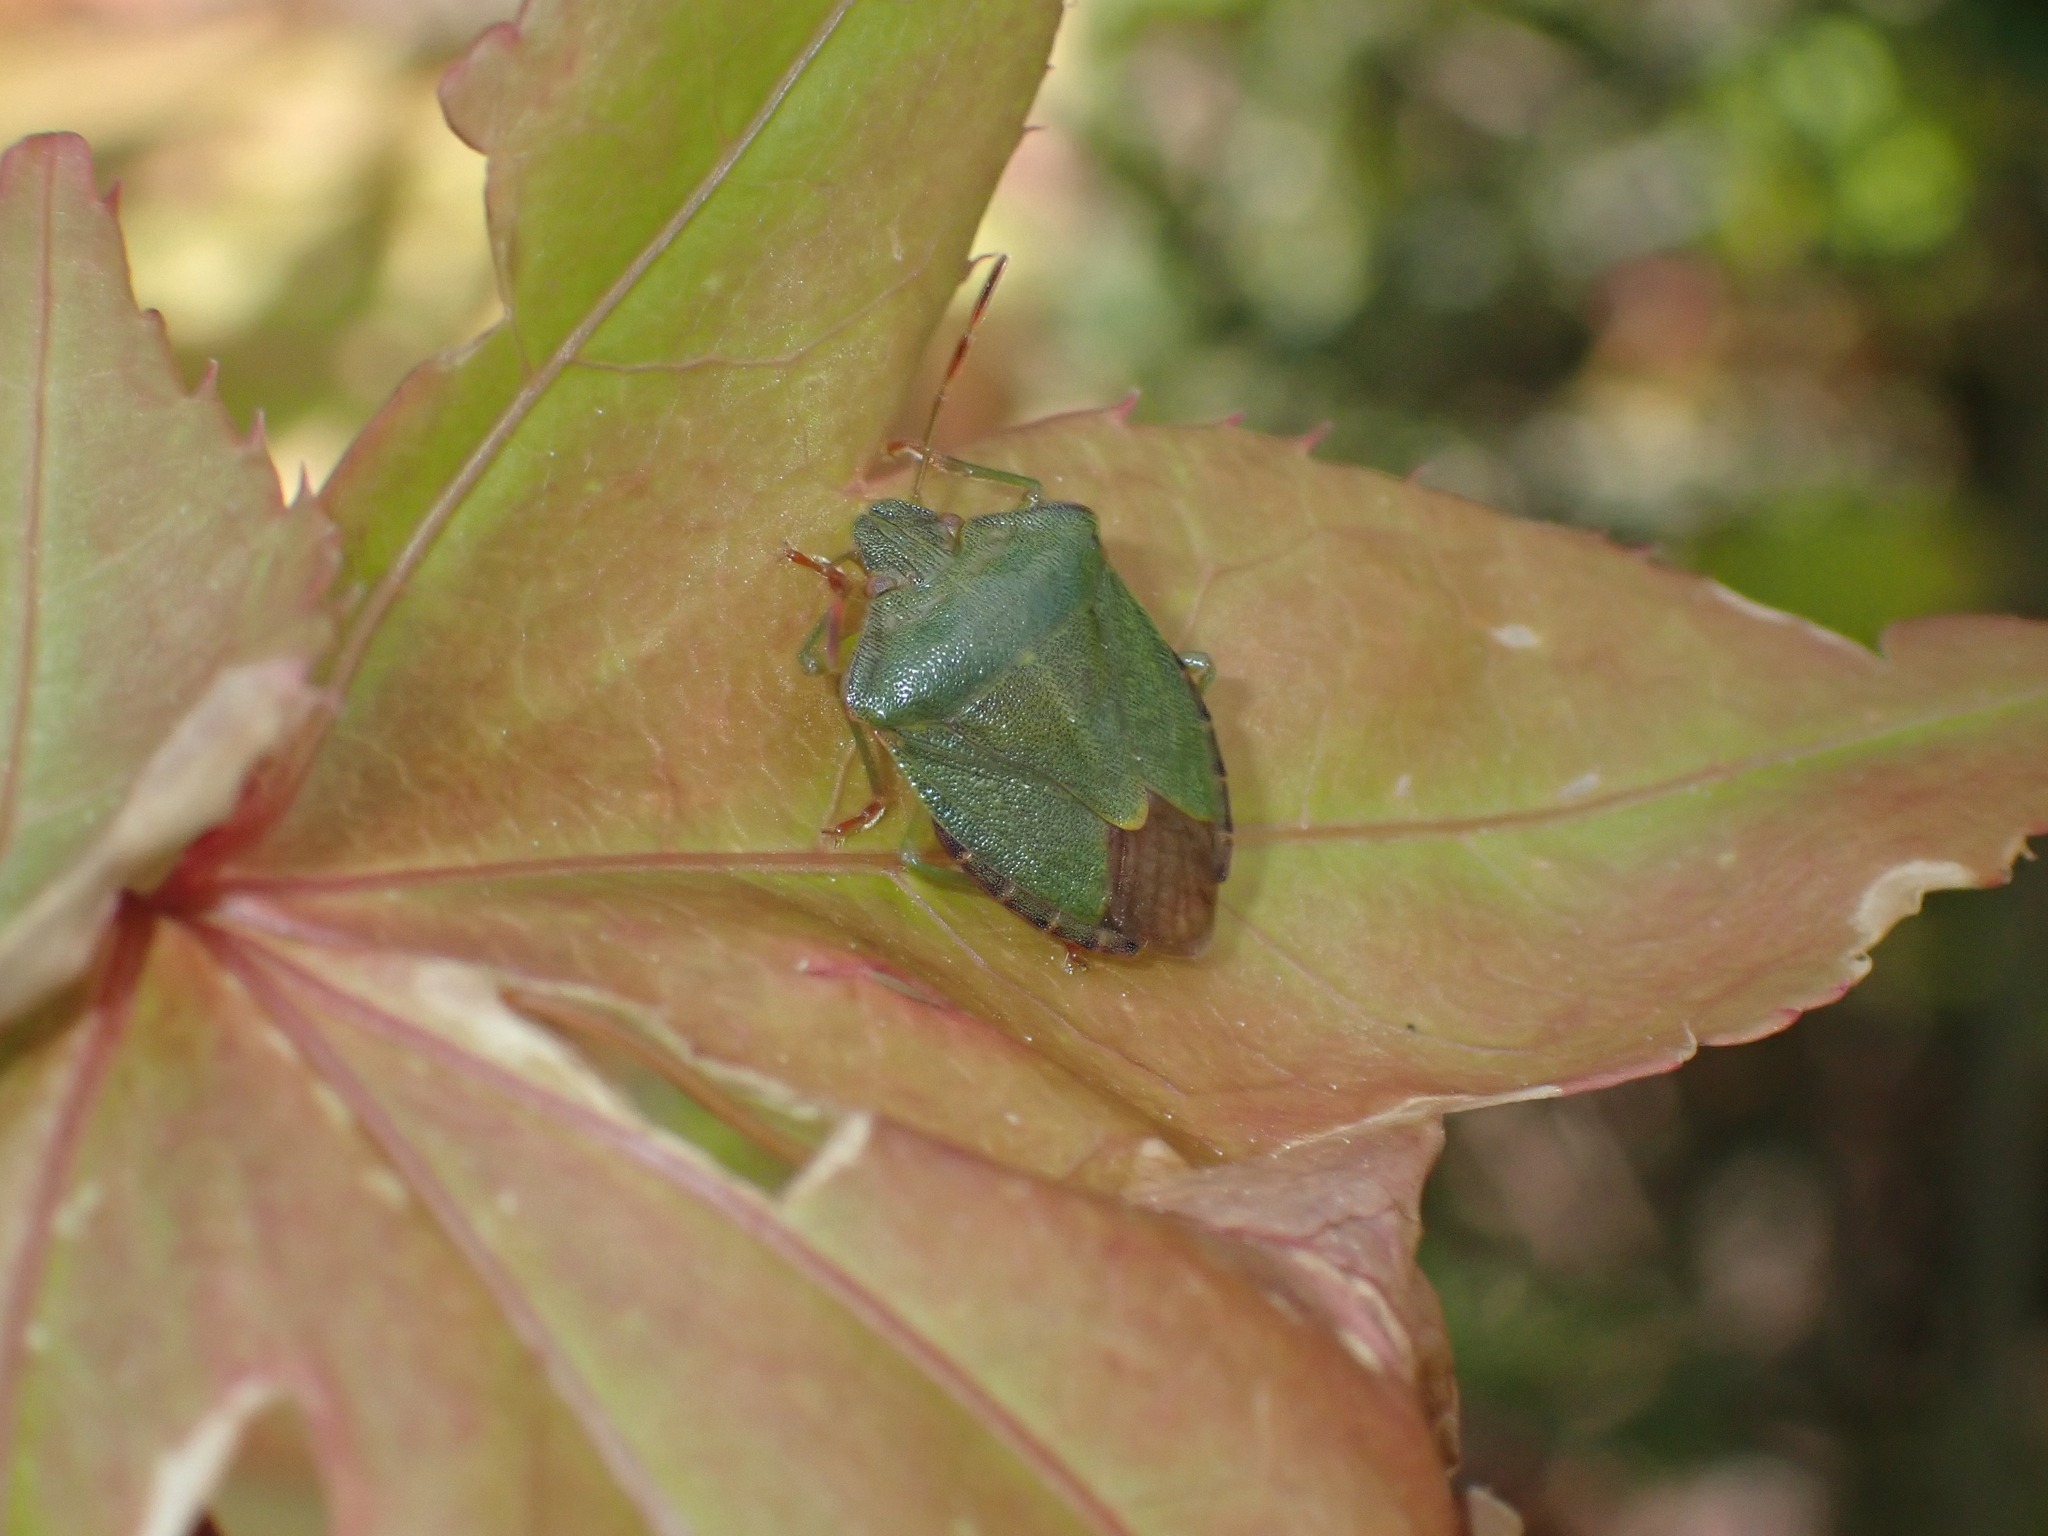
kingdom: Animalia
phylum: Arthropoda
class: Insecta
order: Hemiptera
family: Pentatomidae
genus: Palomena
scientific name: Palomena prasina
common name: Green shieldbug
